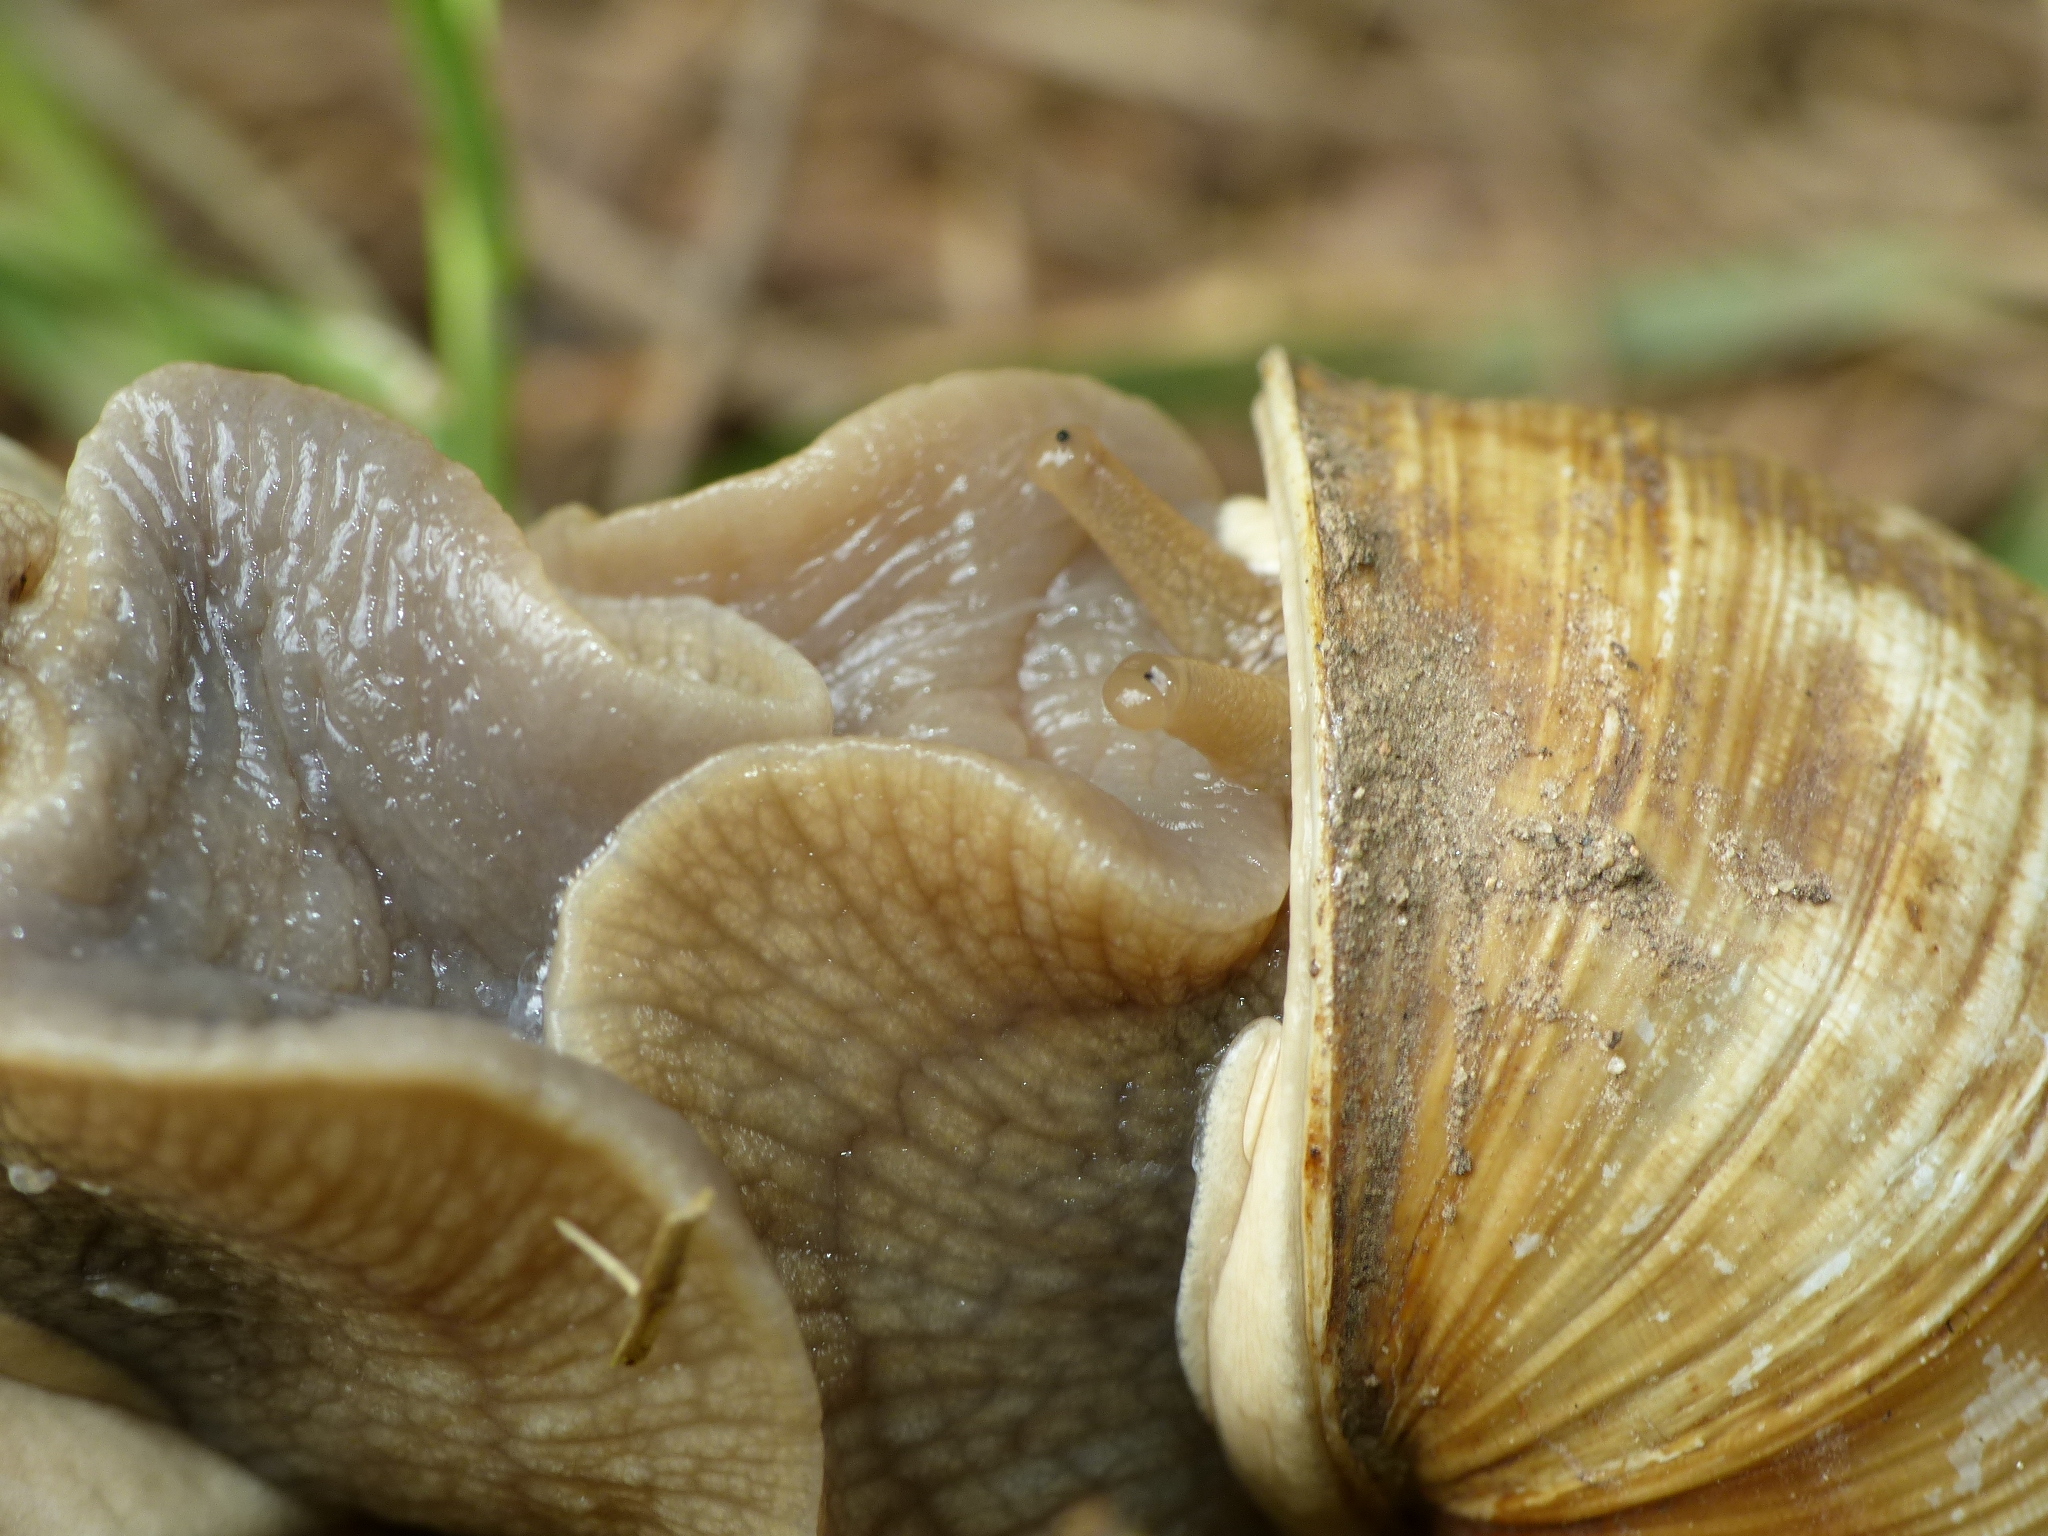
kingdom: Animalia
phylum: Mollusca
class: Gastropoda
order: Stylommatophora
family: Helicidae
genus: Helix
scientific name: Helix pomatia
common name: Roman snail
